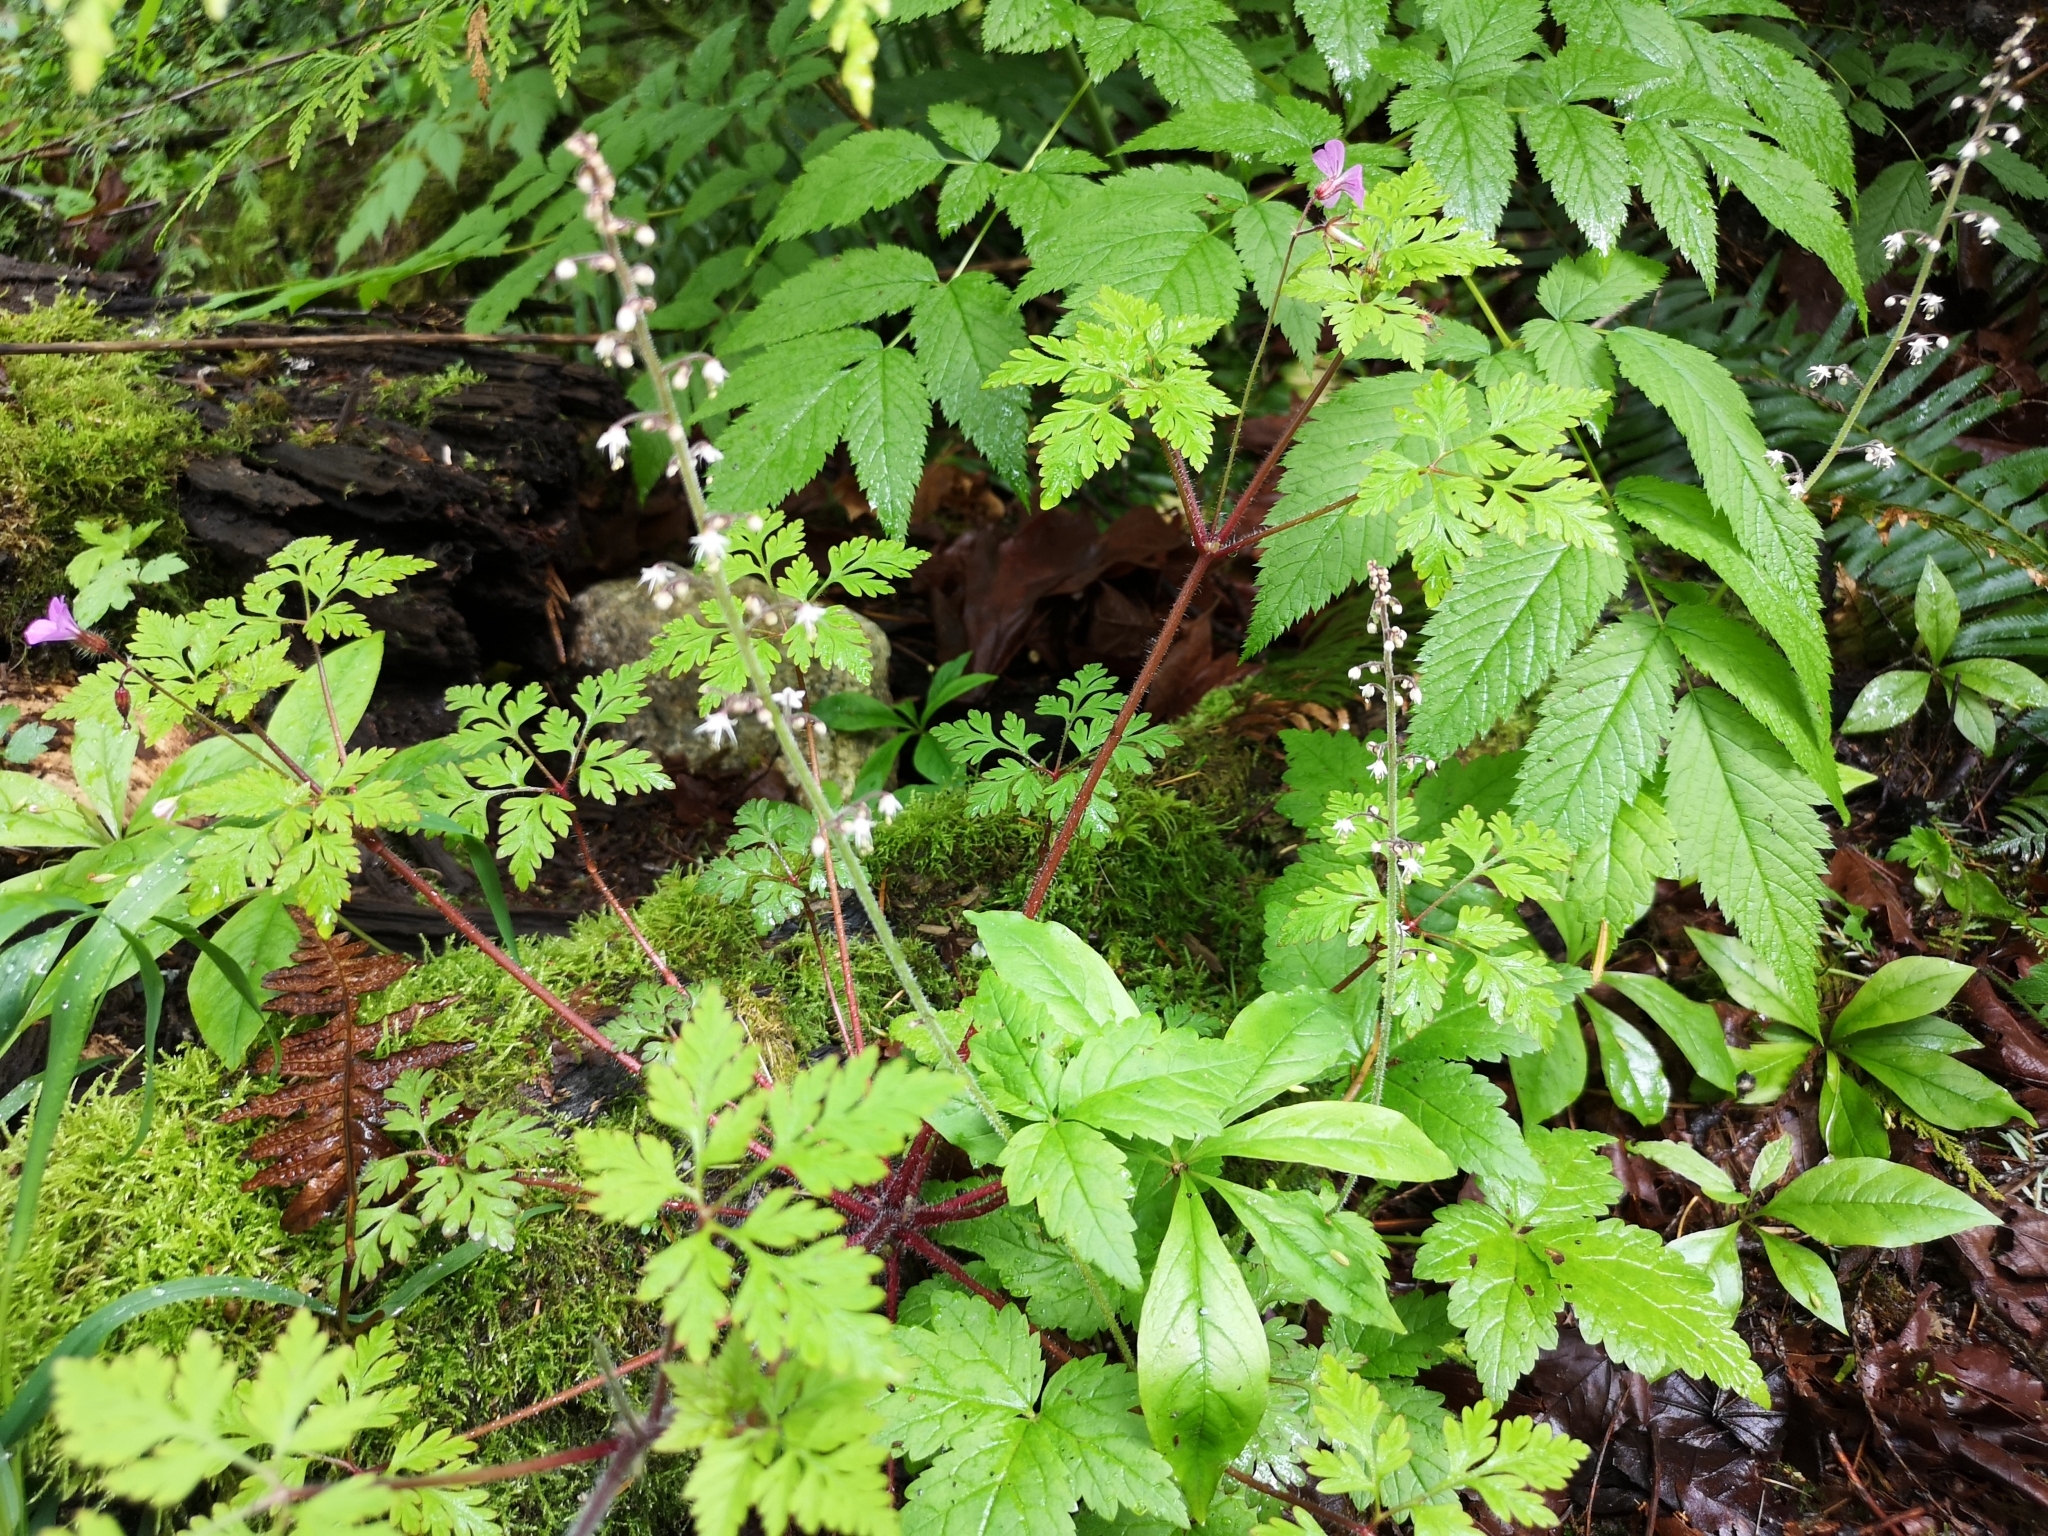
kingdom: Plantae
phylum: Tracheophyta
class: Magnoliopsida
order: Saxifragales
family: Saxifragaceae
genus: Tiarella
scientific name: Tiarella trifoliata
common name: Sugar-scoop
